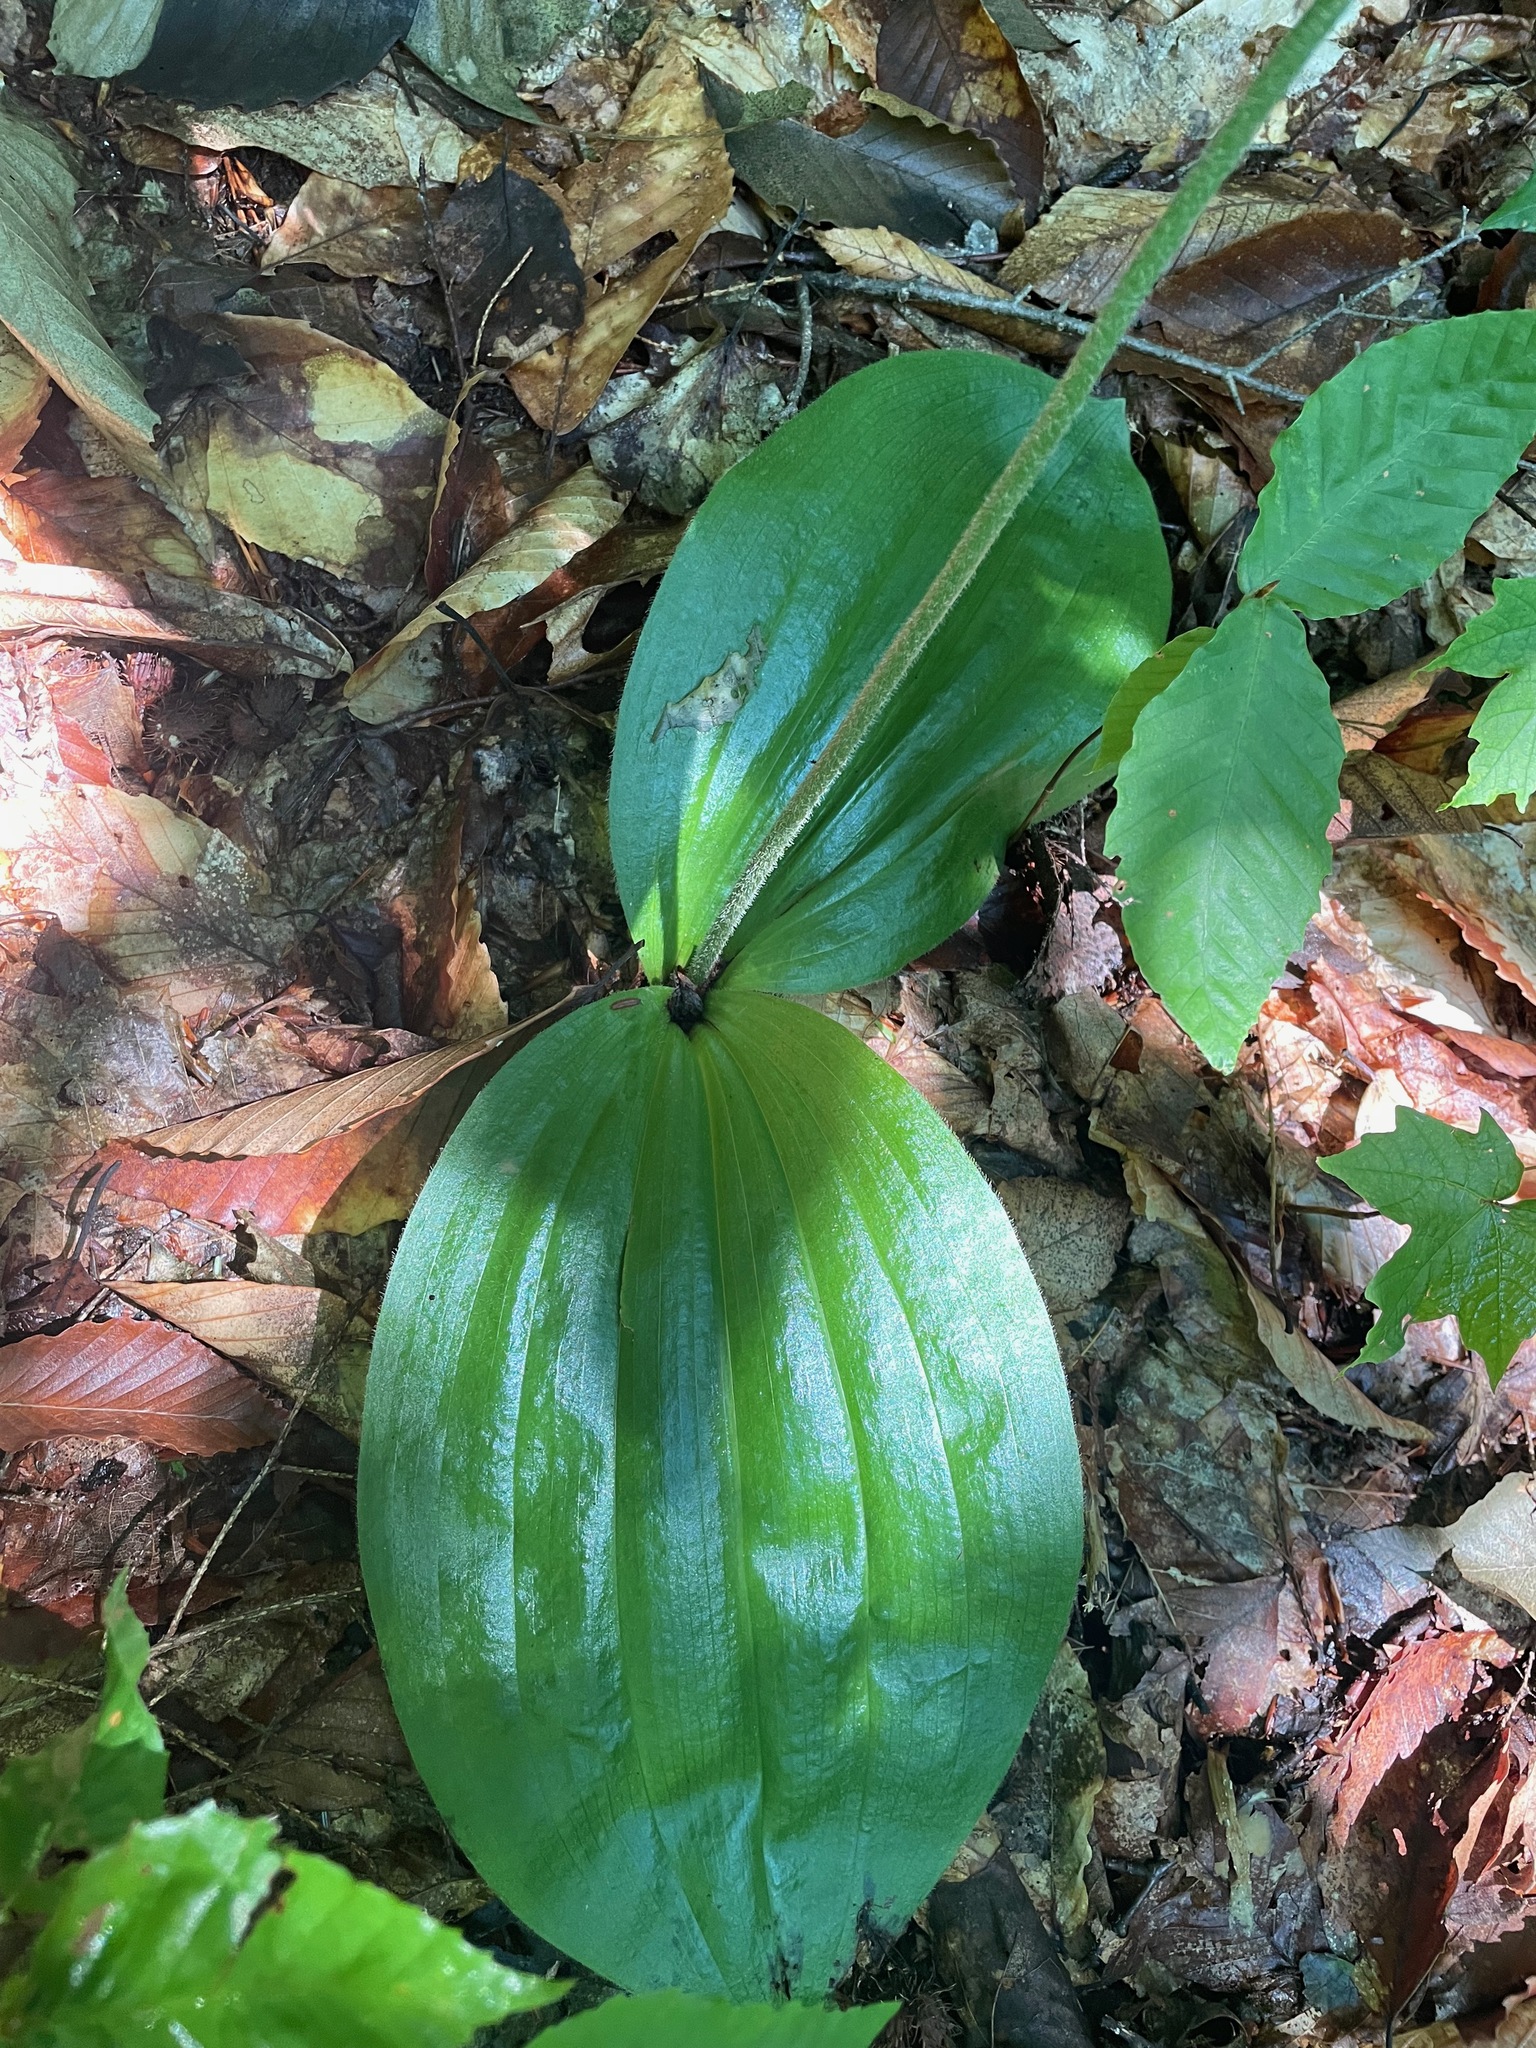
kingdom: Plantae
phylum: Tracheophyta
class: Liliopsida
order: Asparagales
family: Orchidaceae
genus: Cypripedium
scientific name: Cypripedium acaule
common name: Pink lady's-slipper
